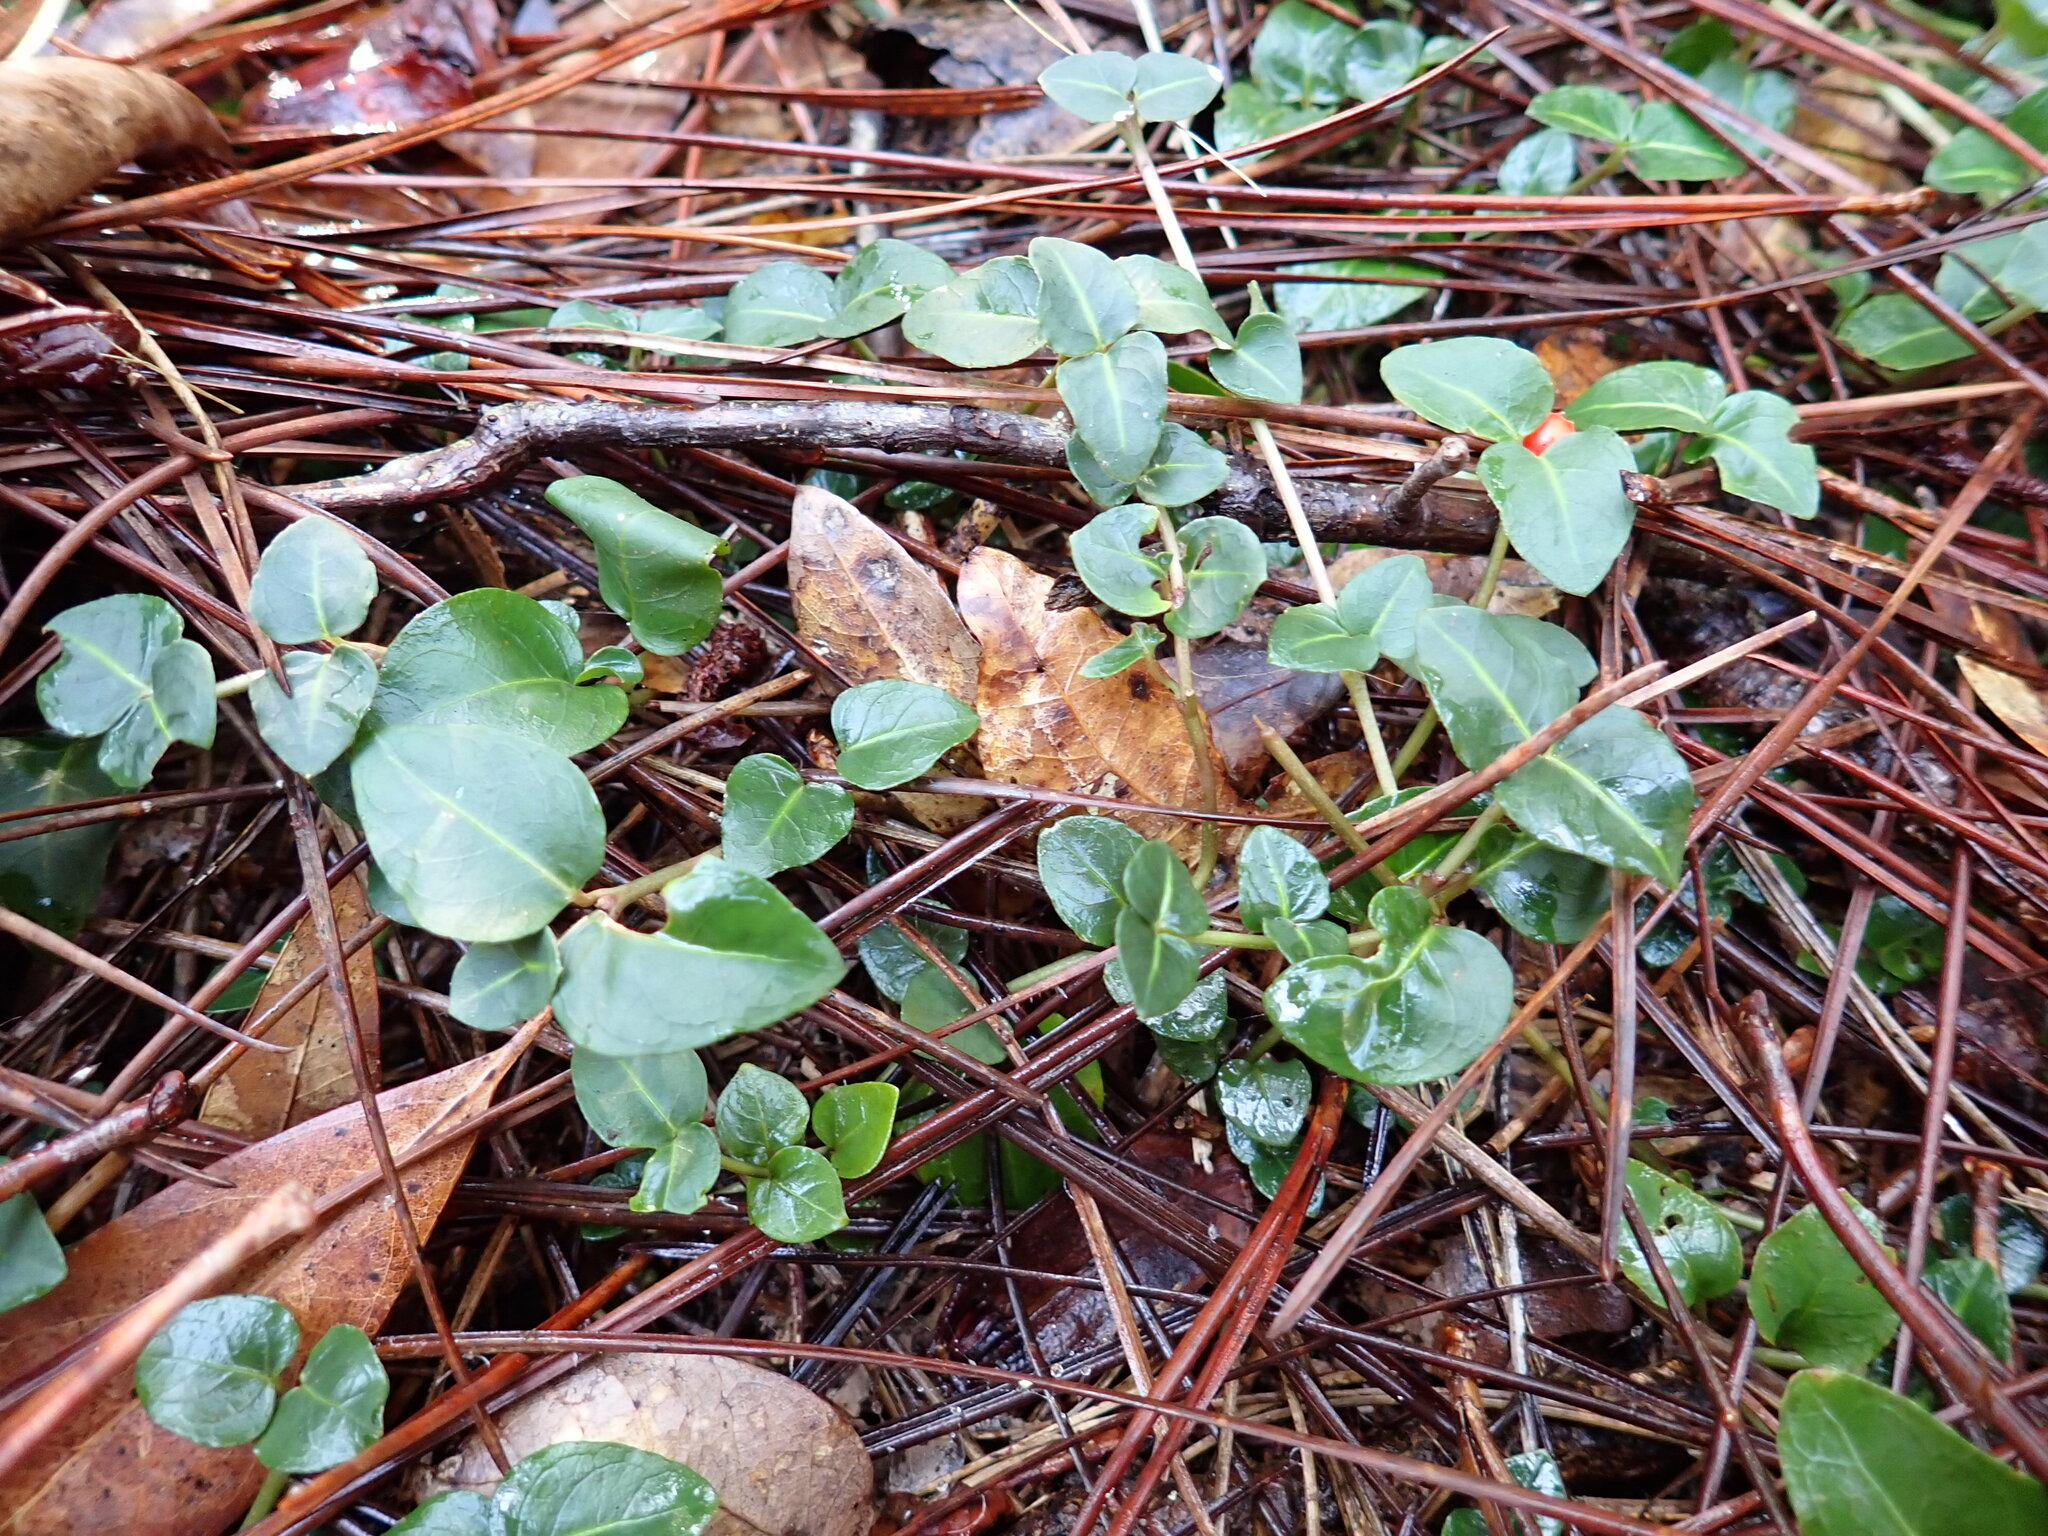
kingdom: Plantae
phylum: Tracheophyta
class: Magnoliopsida
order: Gentianales
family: Rubiaceae
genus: Mitchella
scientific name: Mitchella repens
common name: Partridge-berry
